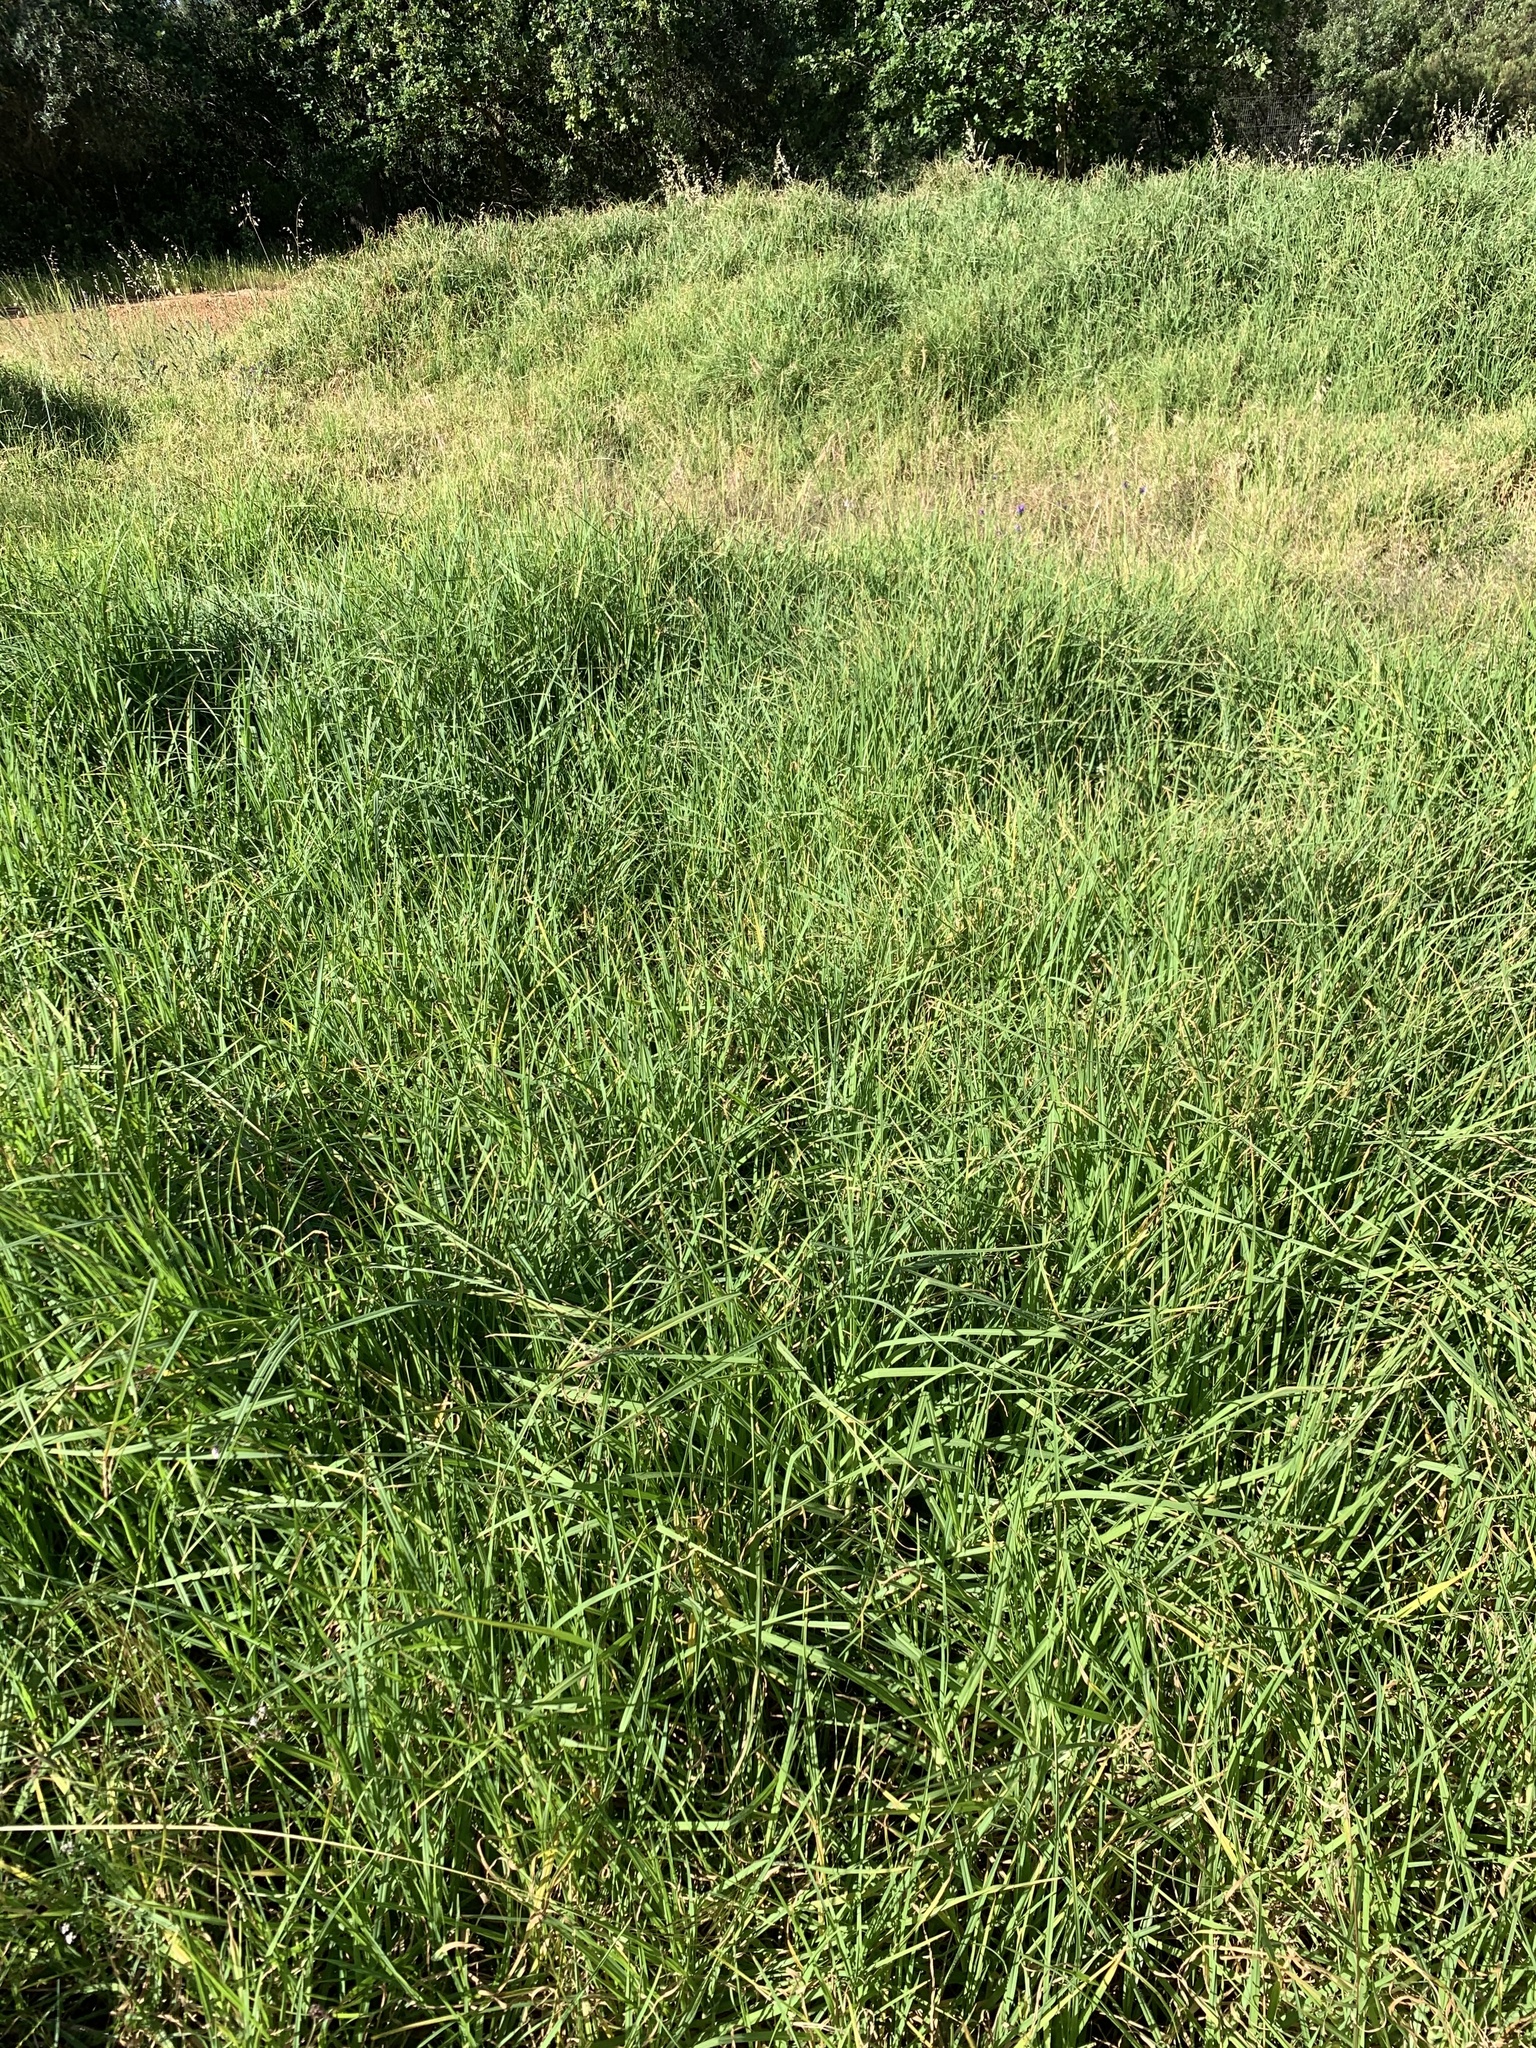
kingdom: Plantae
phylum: Tracheophyta
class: Liliopsida
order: Poales
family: Poaceae
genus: Cenchrus
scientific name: Cenchrus clandestinus
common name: Kikuyugrass
